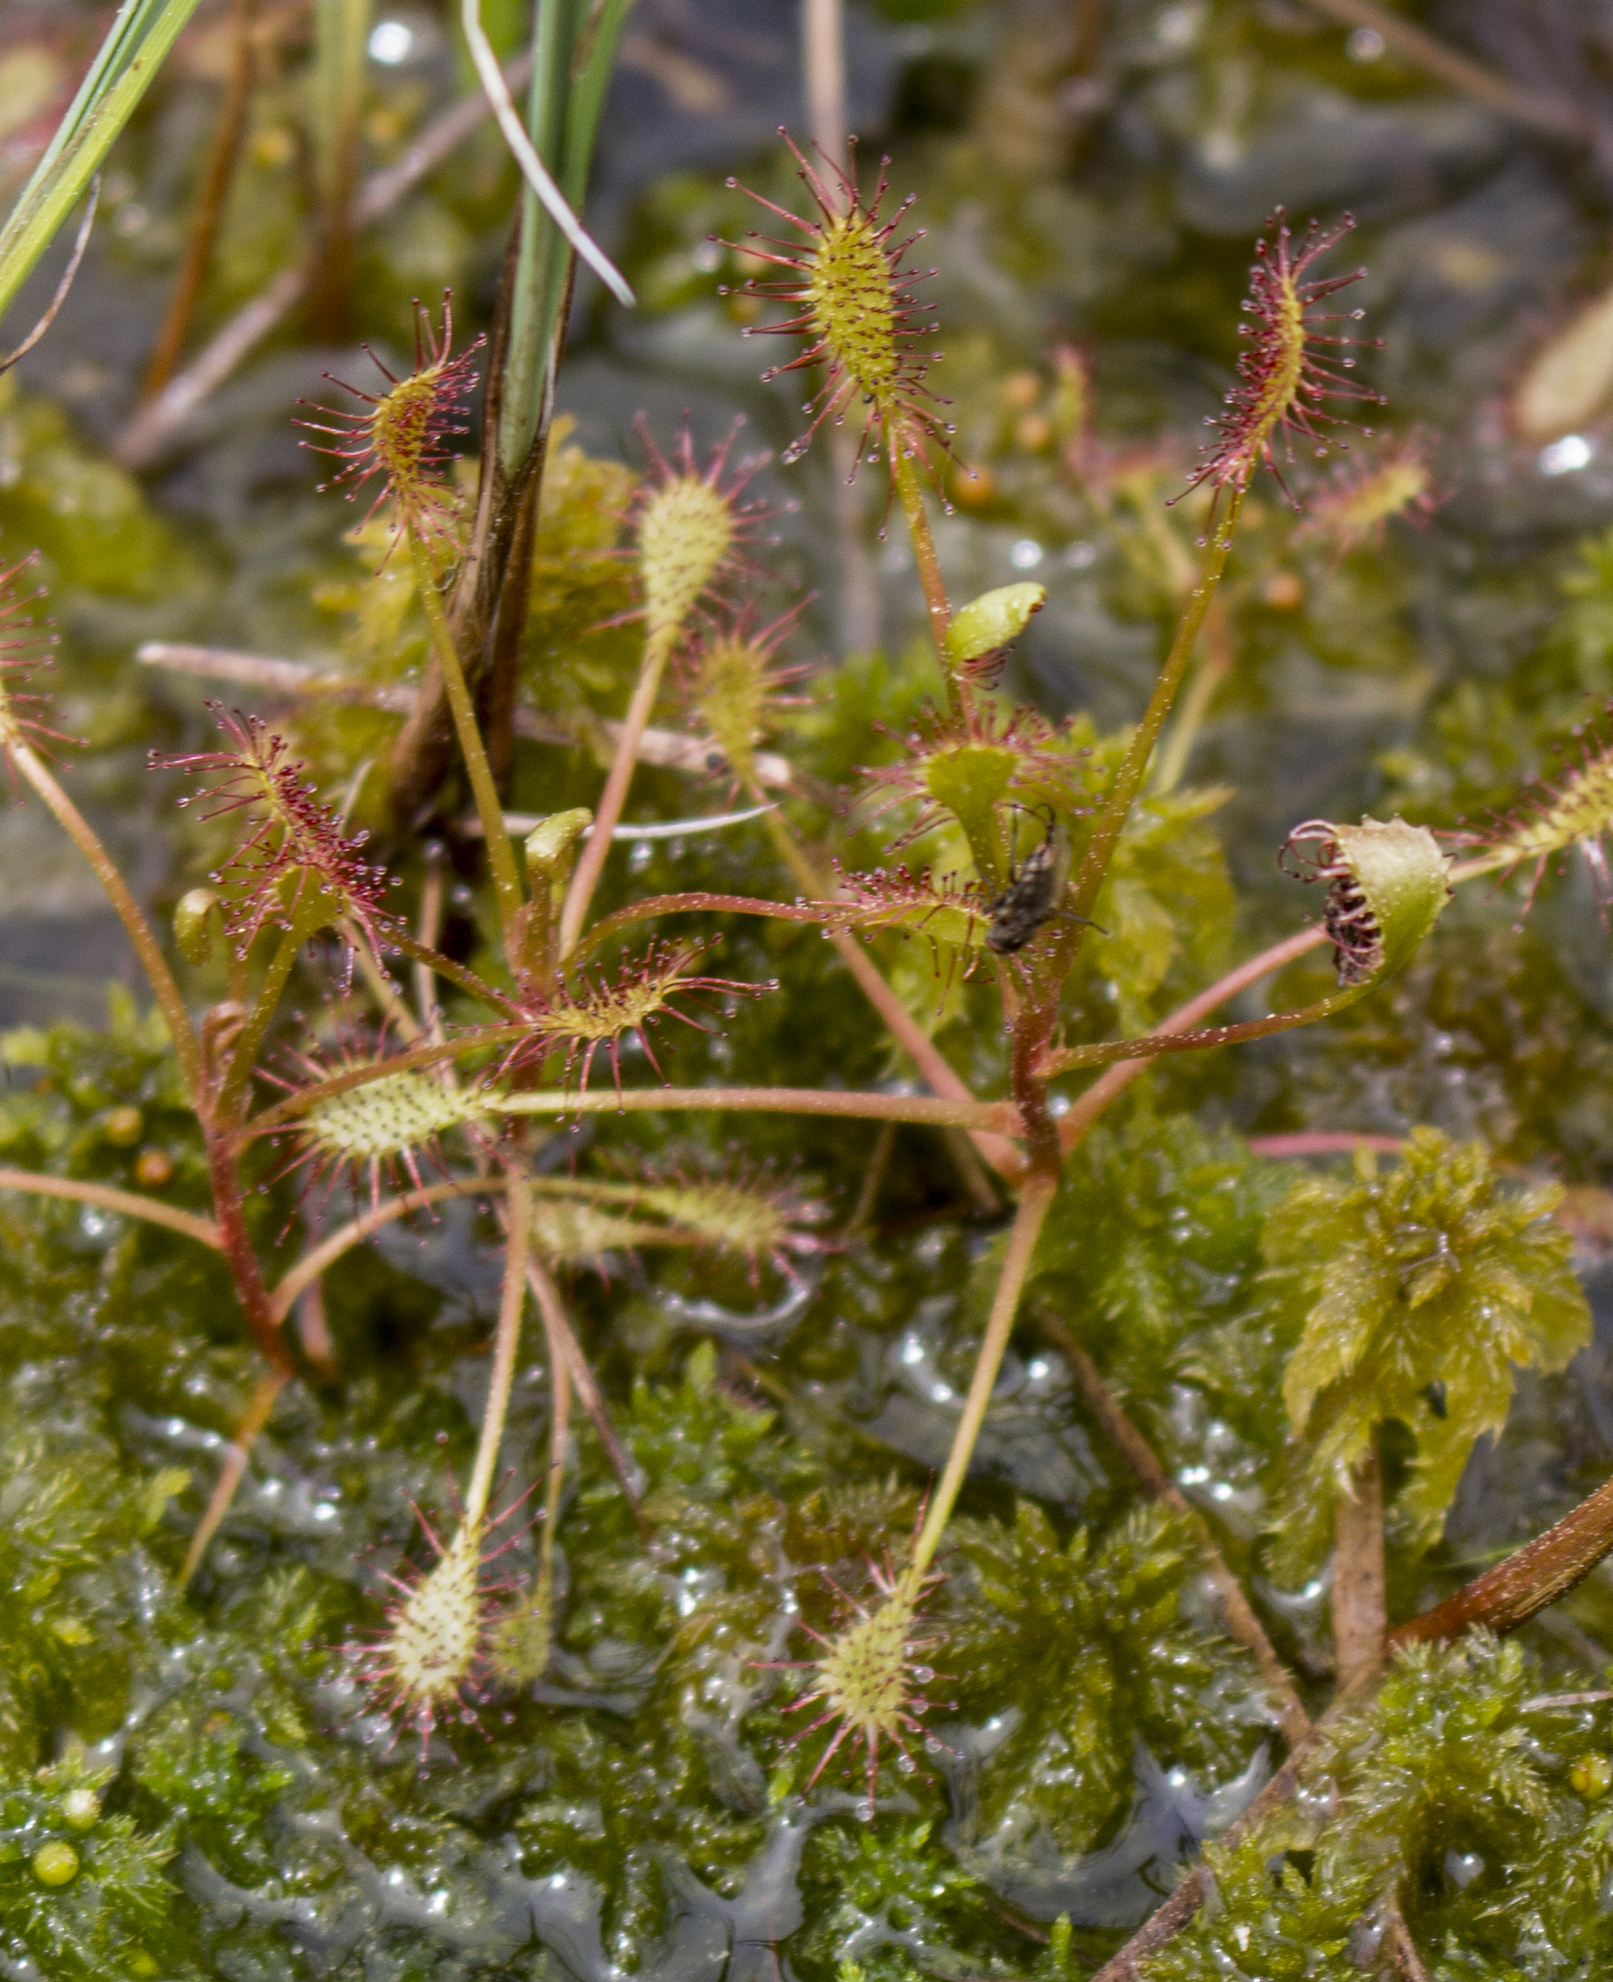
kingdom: Plantae
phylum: Tracheophyta
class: Magnoliopsida
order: Caryophyllales
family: Droseraceae
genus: Drosera
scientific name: Drosera intermedia
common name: Oblong-leaved sundew
